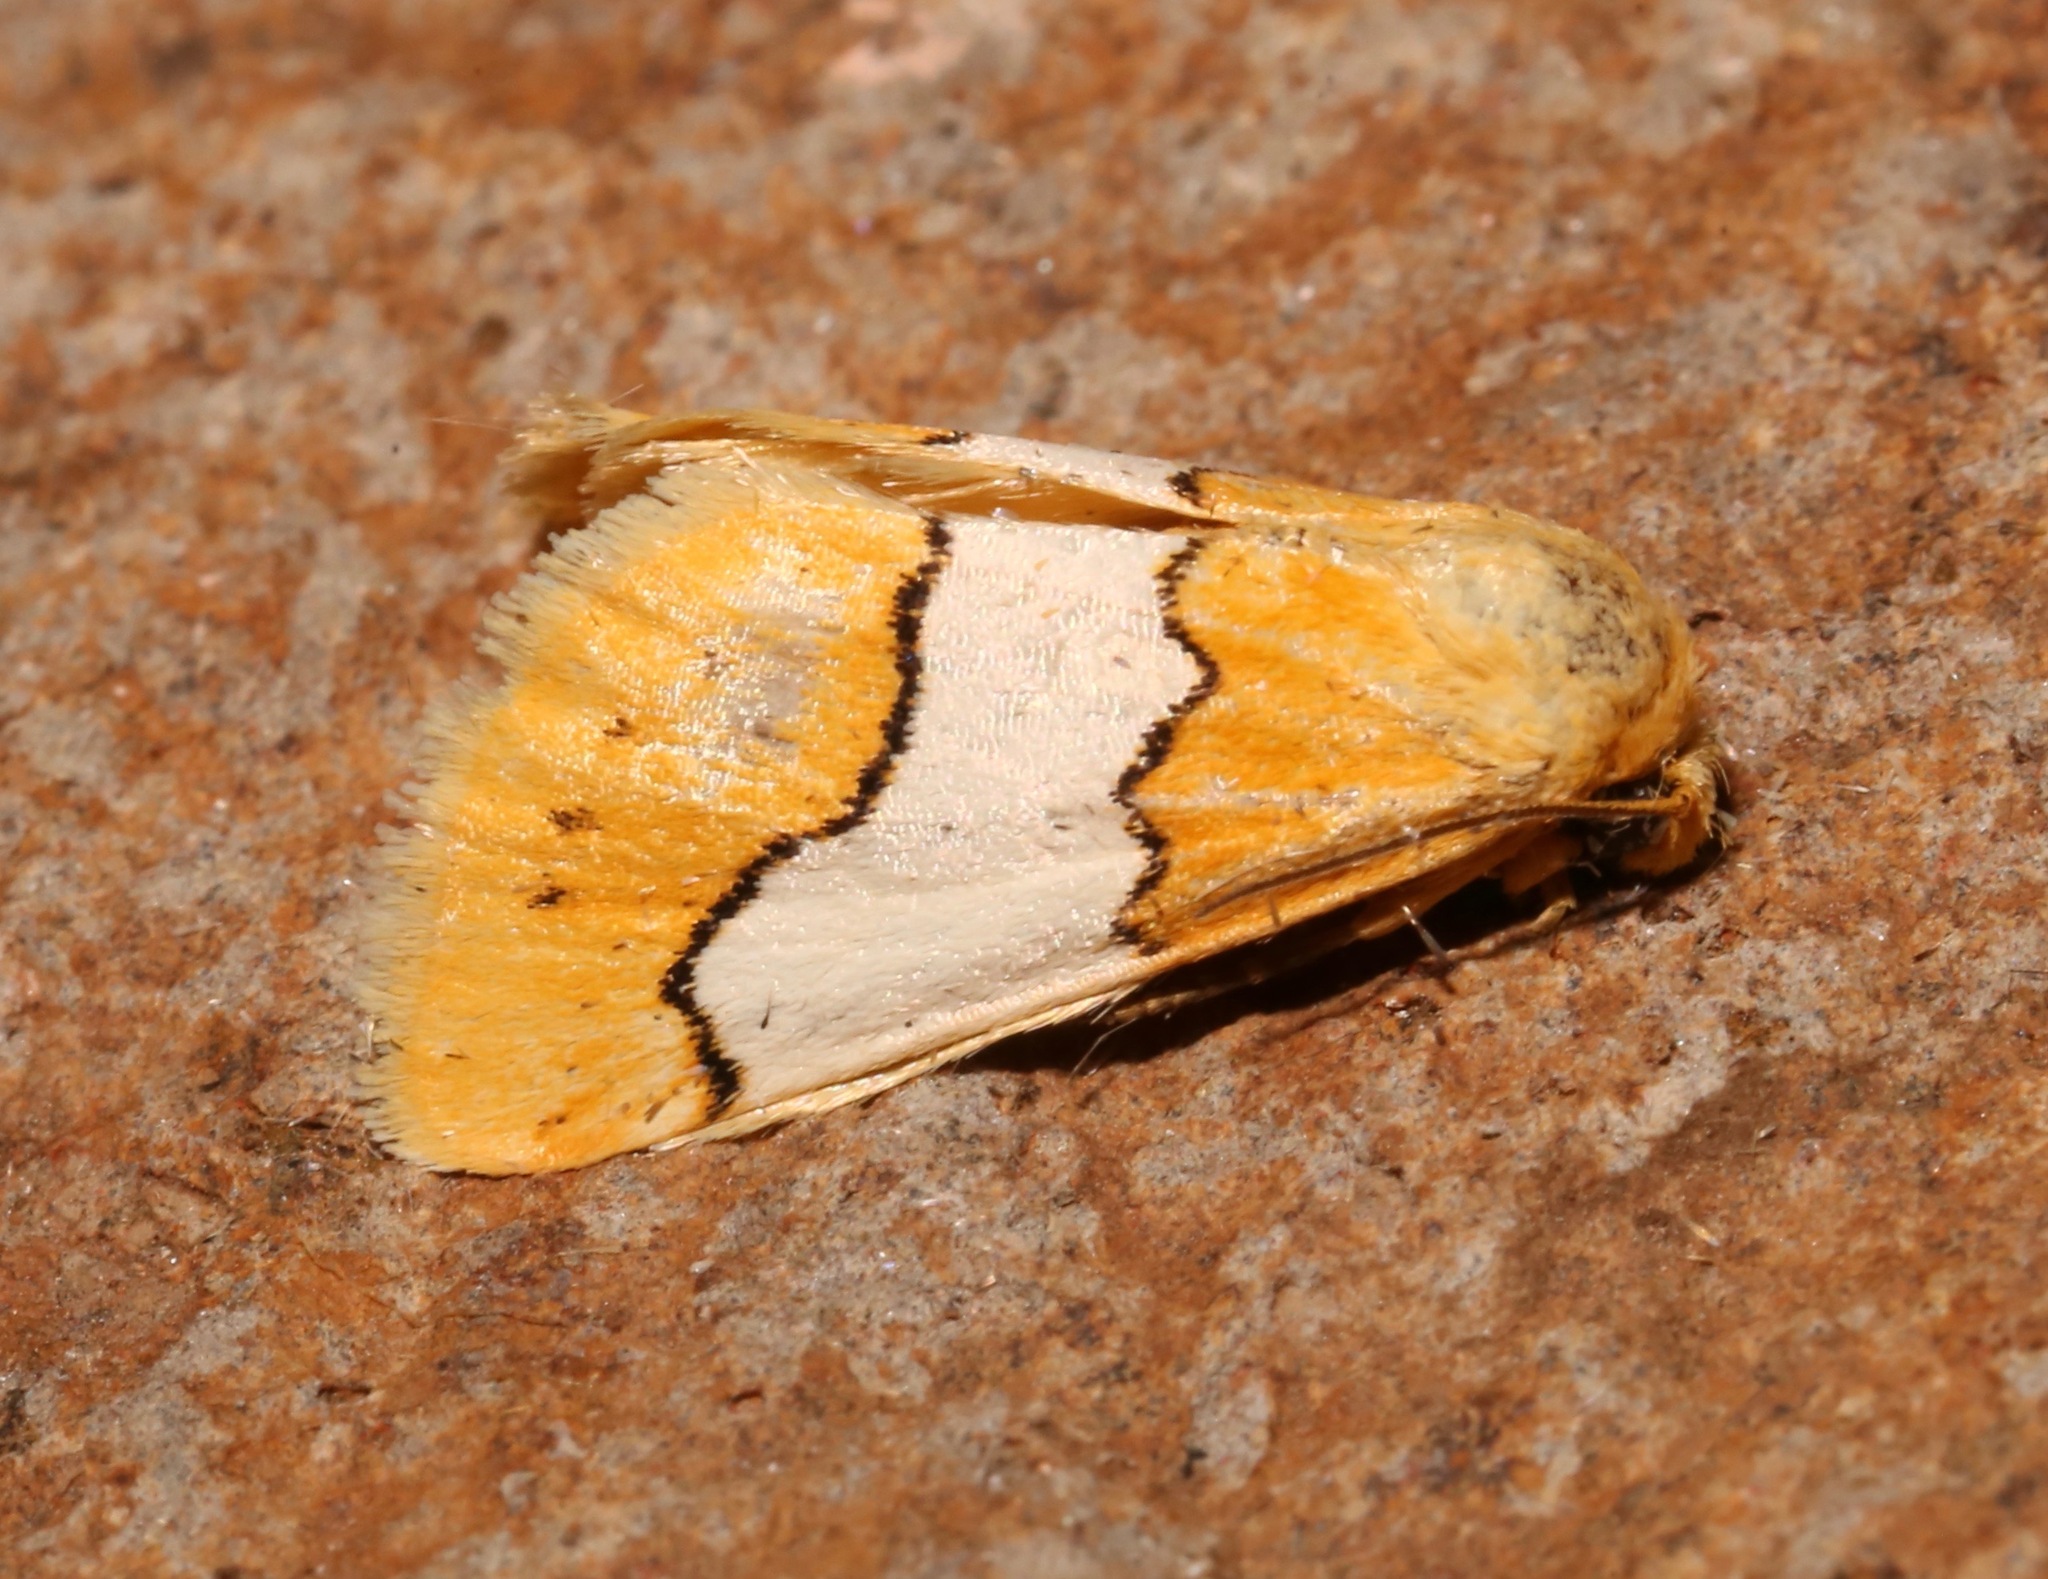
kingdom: Animalia
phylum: Arthropoda
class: Insecta
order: Lepidoptera
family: Noctuidae
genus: Lineostriastiria
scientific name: Lineostriastiria hachita
